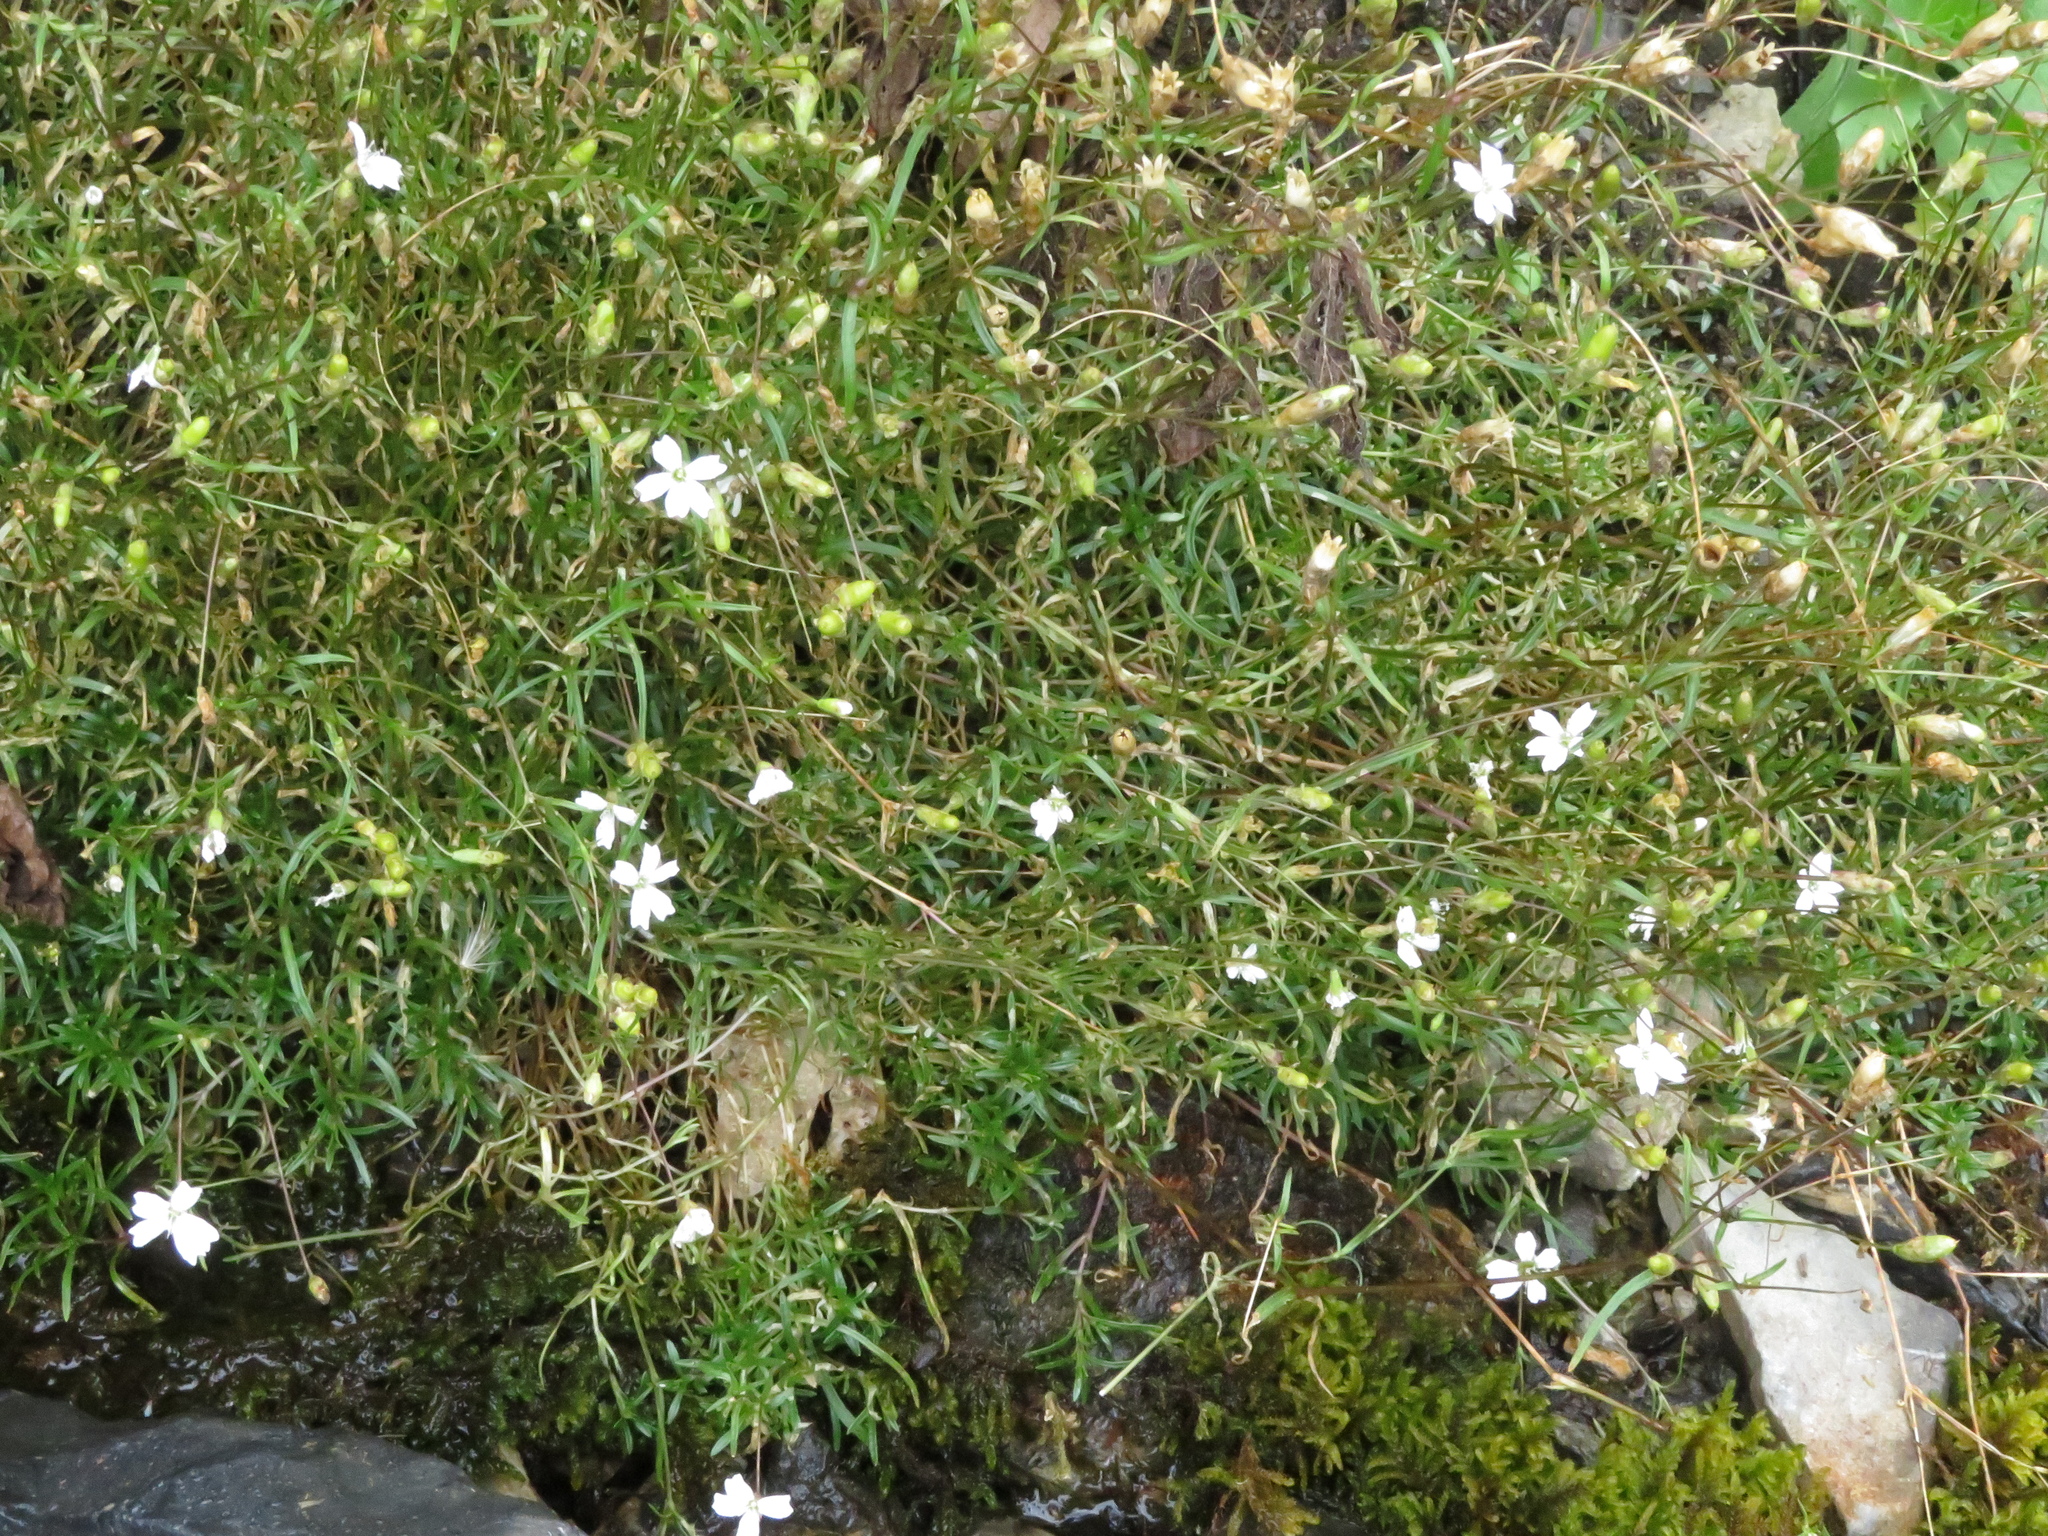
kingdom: Plantae
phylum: Tracheophyta
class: Magnoliopsida
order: Caryophyllales
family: Caryophyllaceae
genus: Heliosperma
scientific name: Heliosperma pusillum
